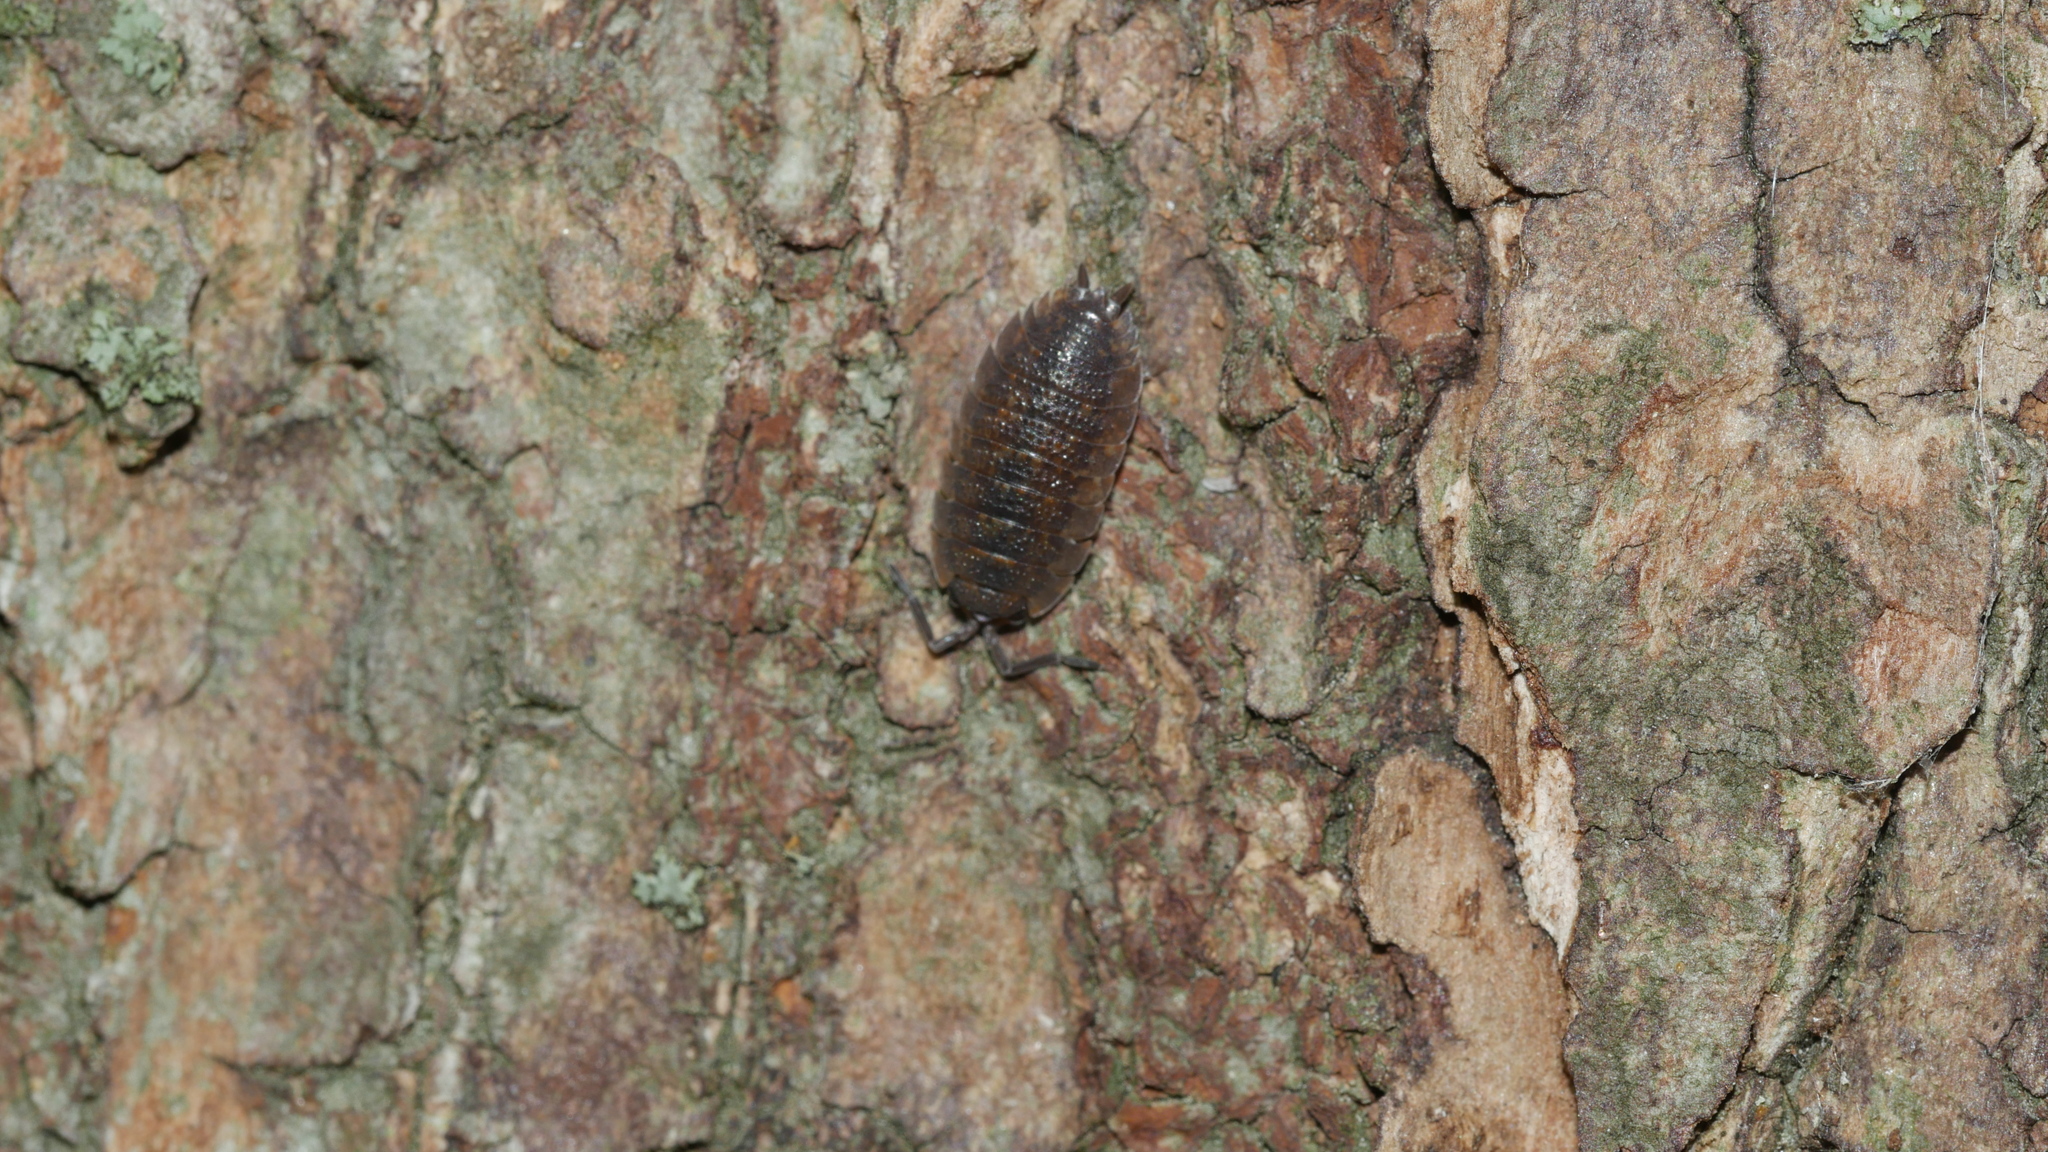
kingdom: Animalia
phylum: Arthropoda
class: Malacostraca
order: Isopoda
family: Porcellionidae
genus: Porcellio
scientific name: Porcellio scaber
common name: Common rough woodlouse
